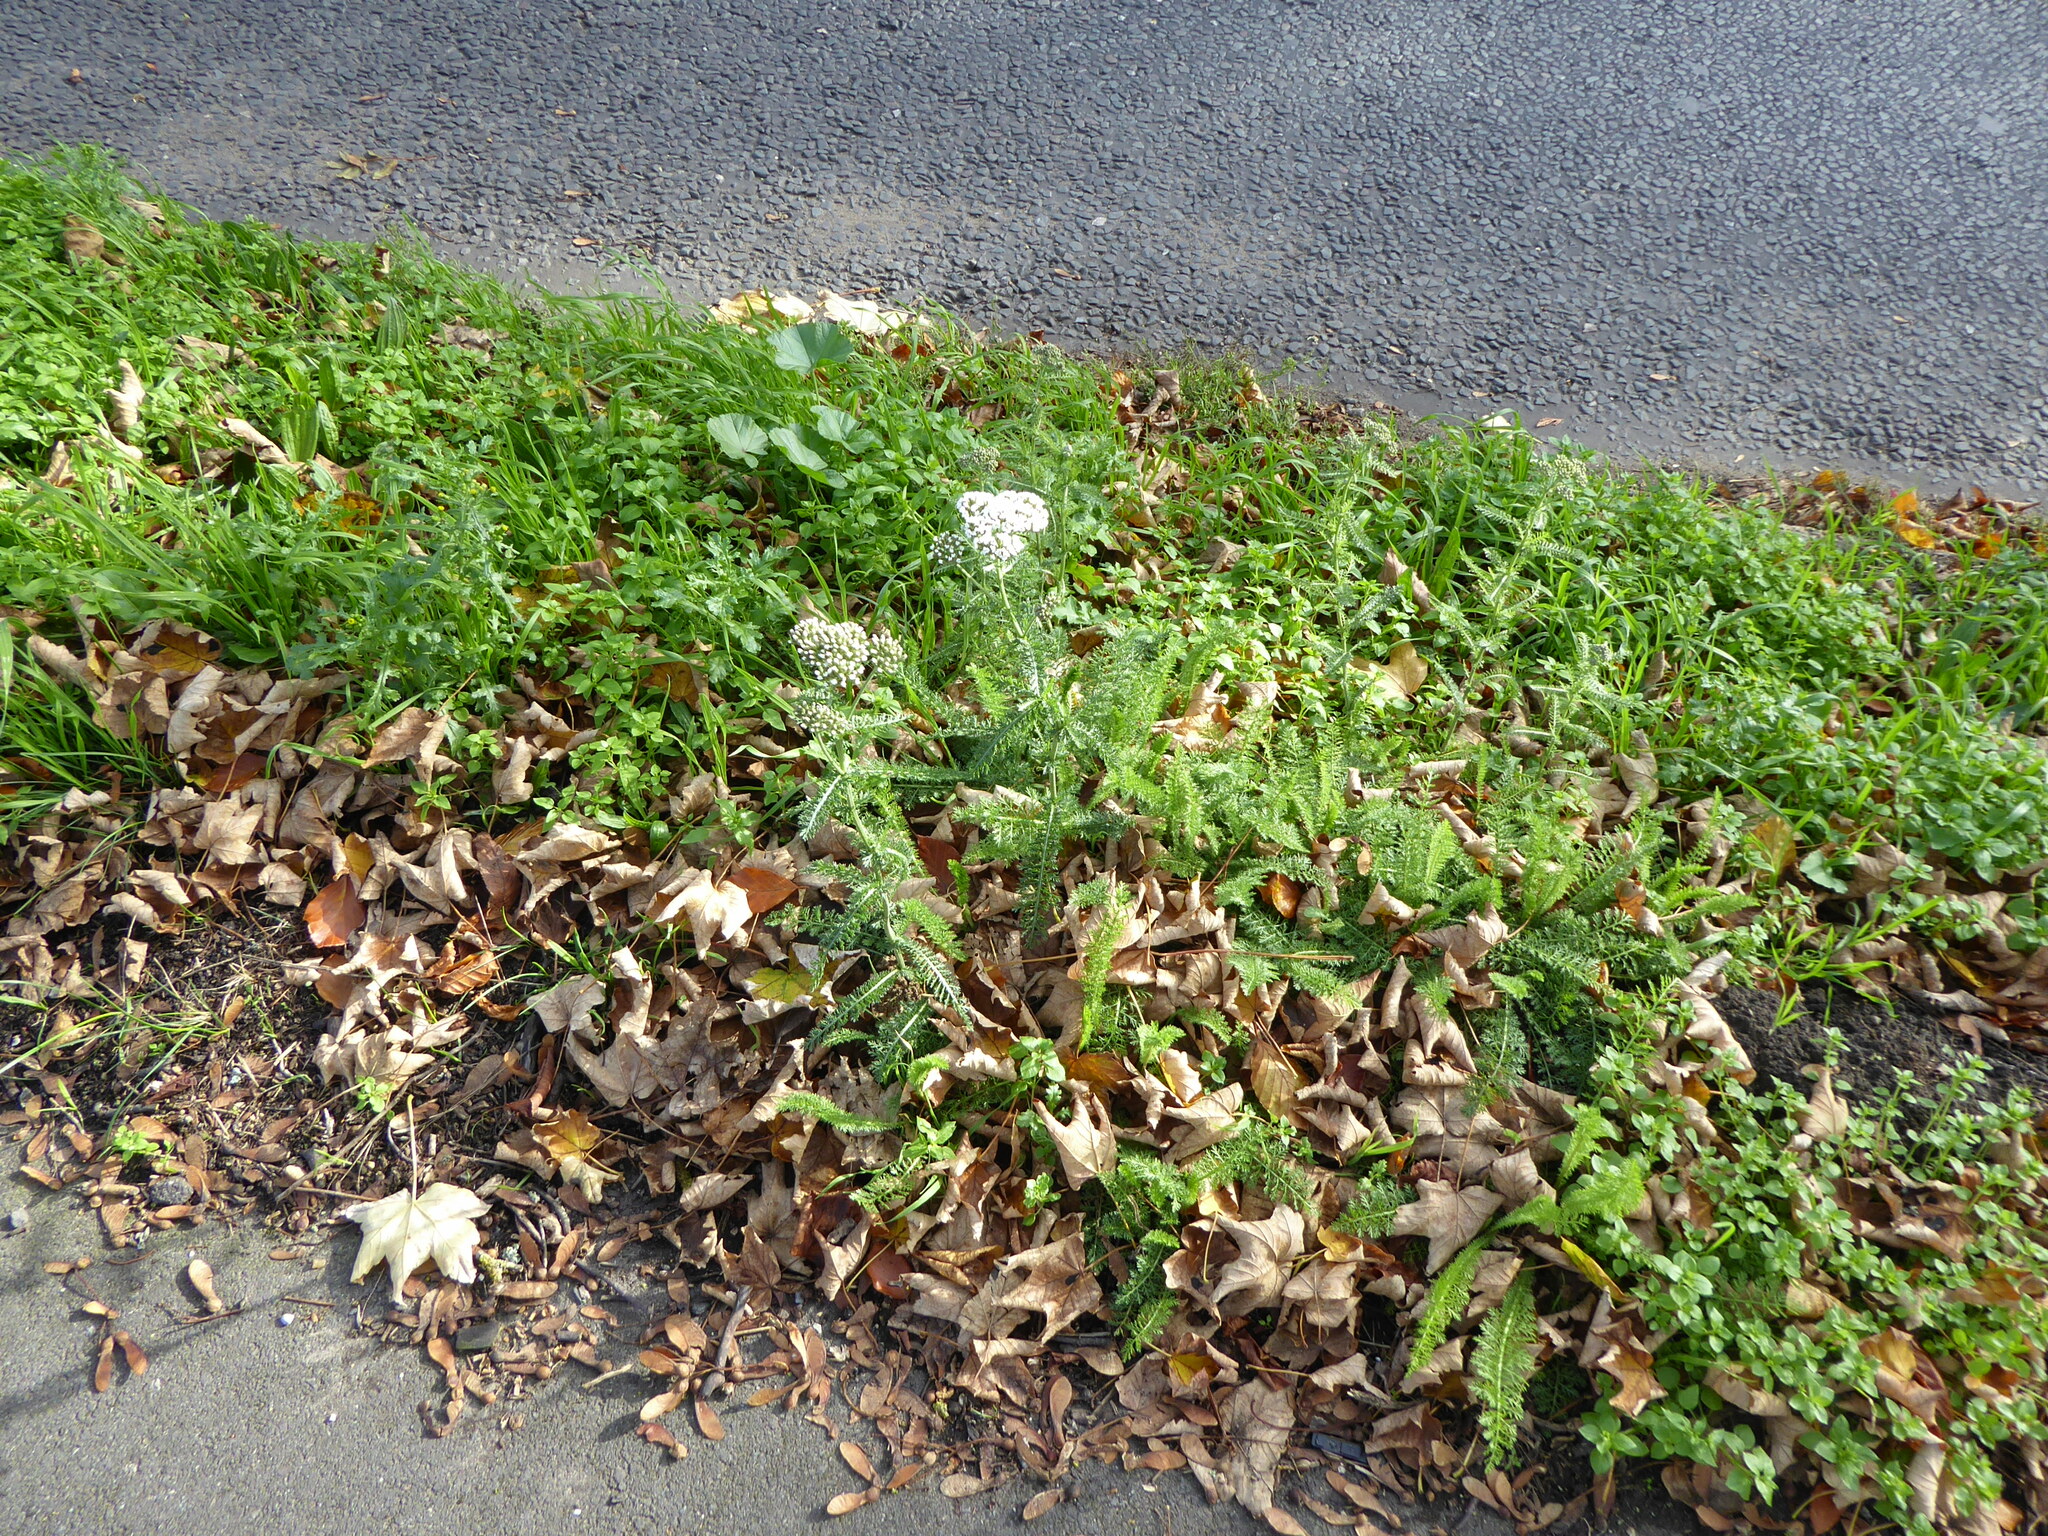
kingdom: Plantae
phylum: Tracheophyta
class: Magnoliopsida
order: Asterales
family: Asteraceae
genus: Achillea
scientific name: Achillea millefolium
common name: Yarrow
